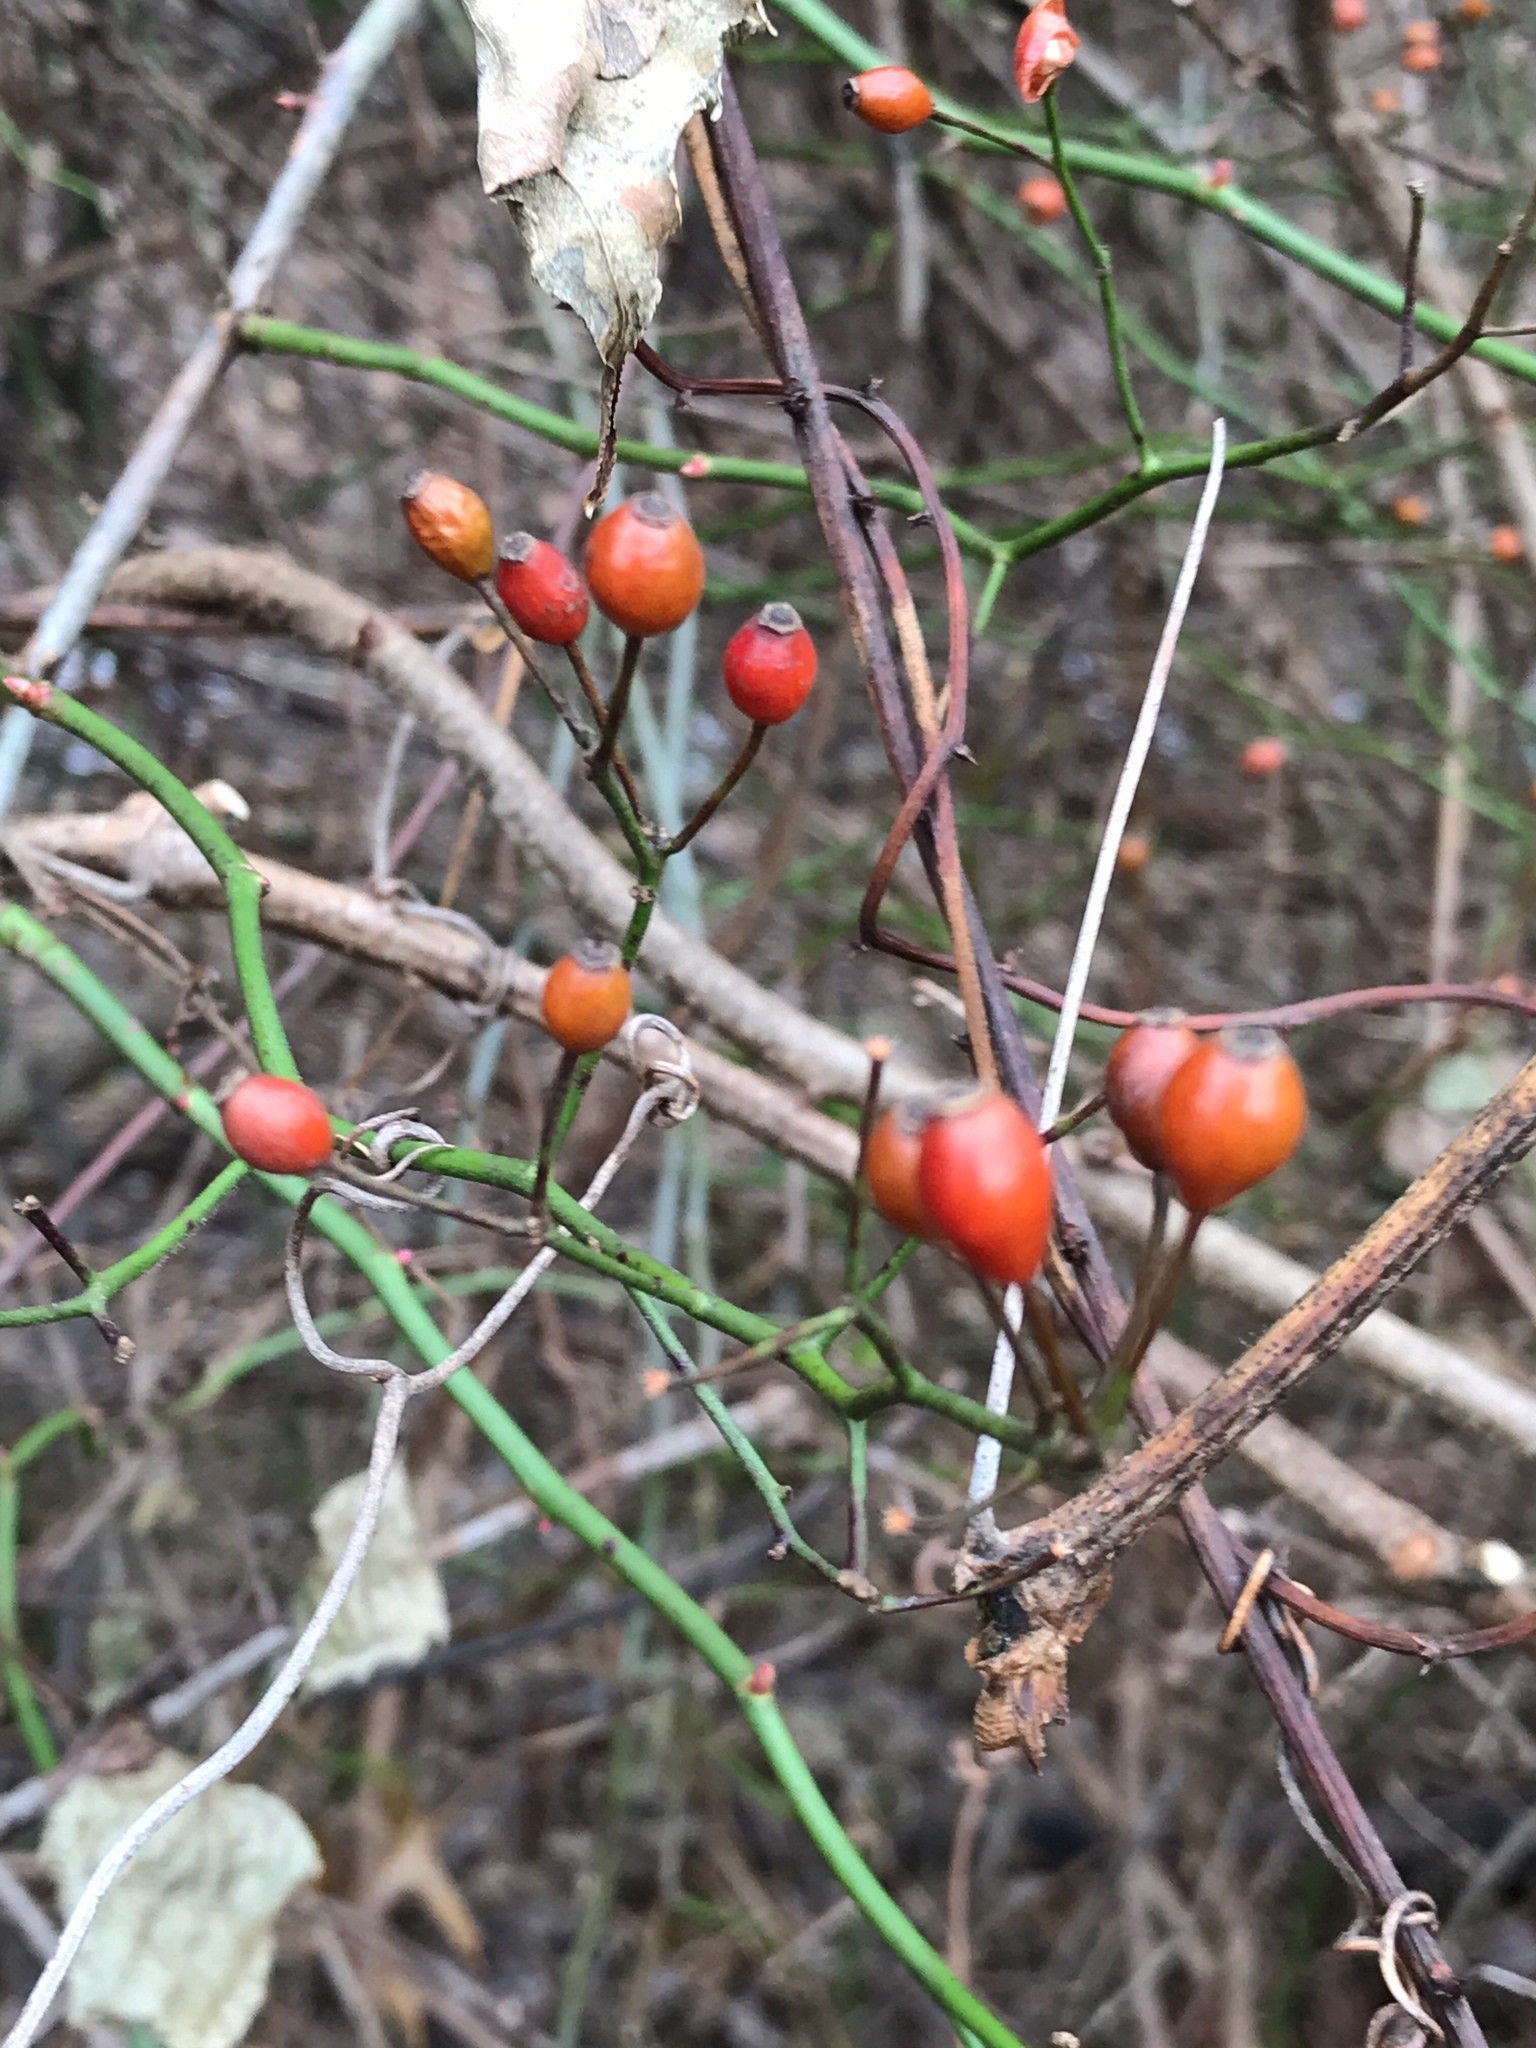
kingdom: Plantae
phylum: Tracheophyta
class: Magnoliopsida
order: Rosales
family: Rosaceae
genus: Rosa
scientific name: Rosa multiflora
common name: Multiflora rose
